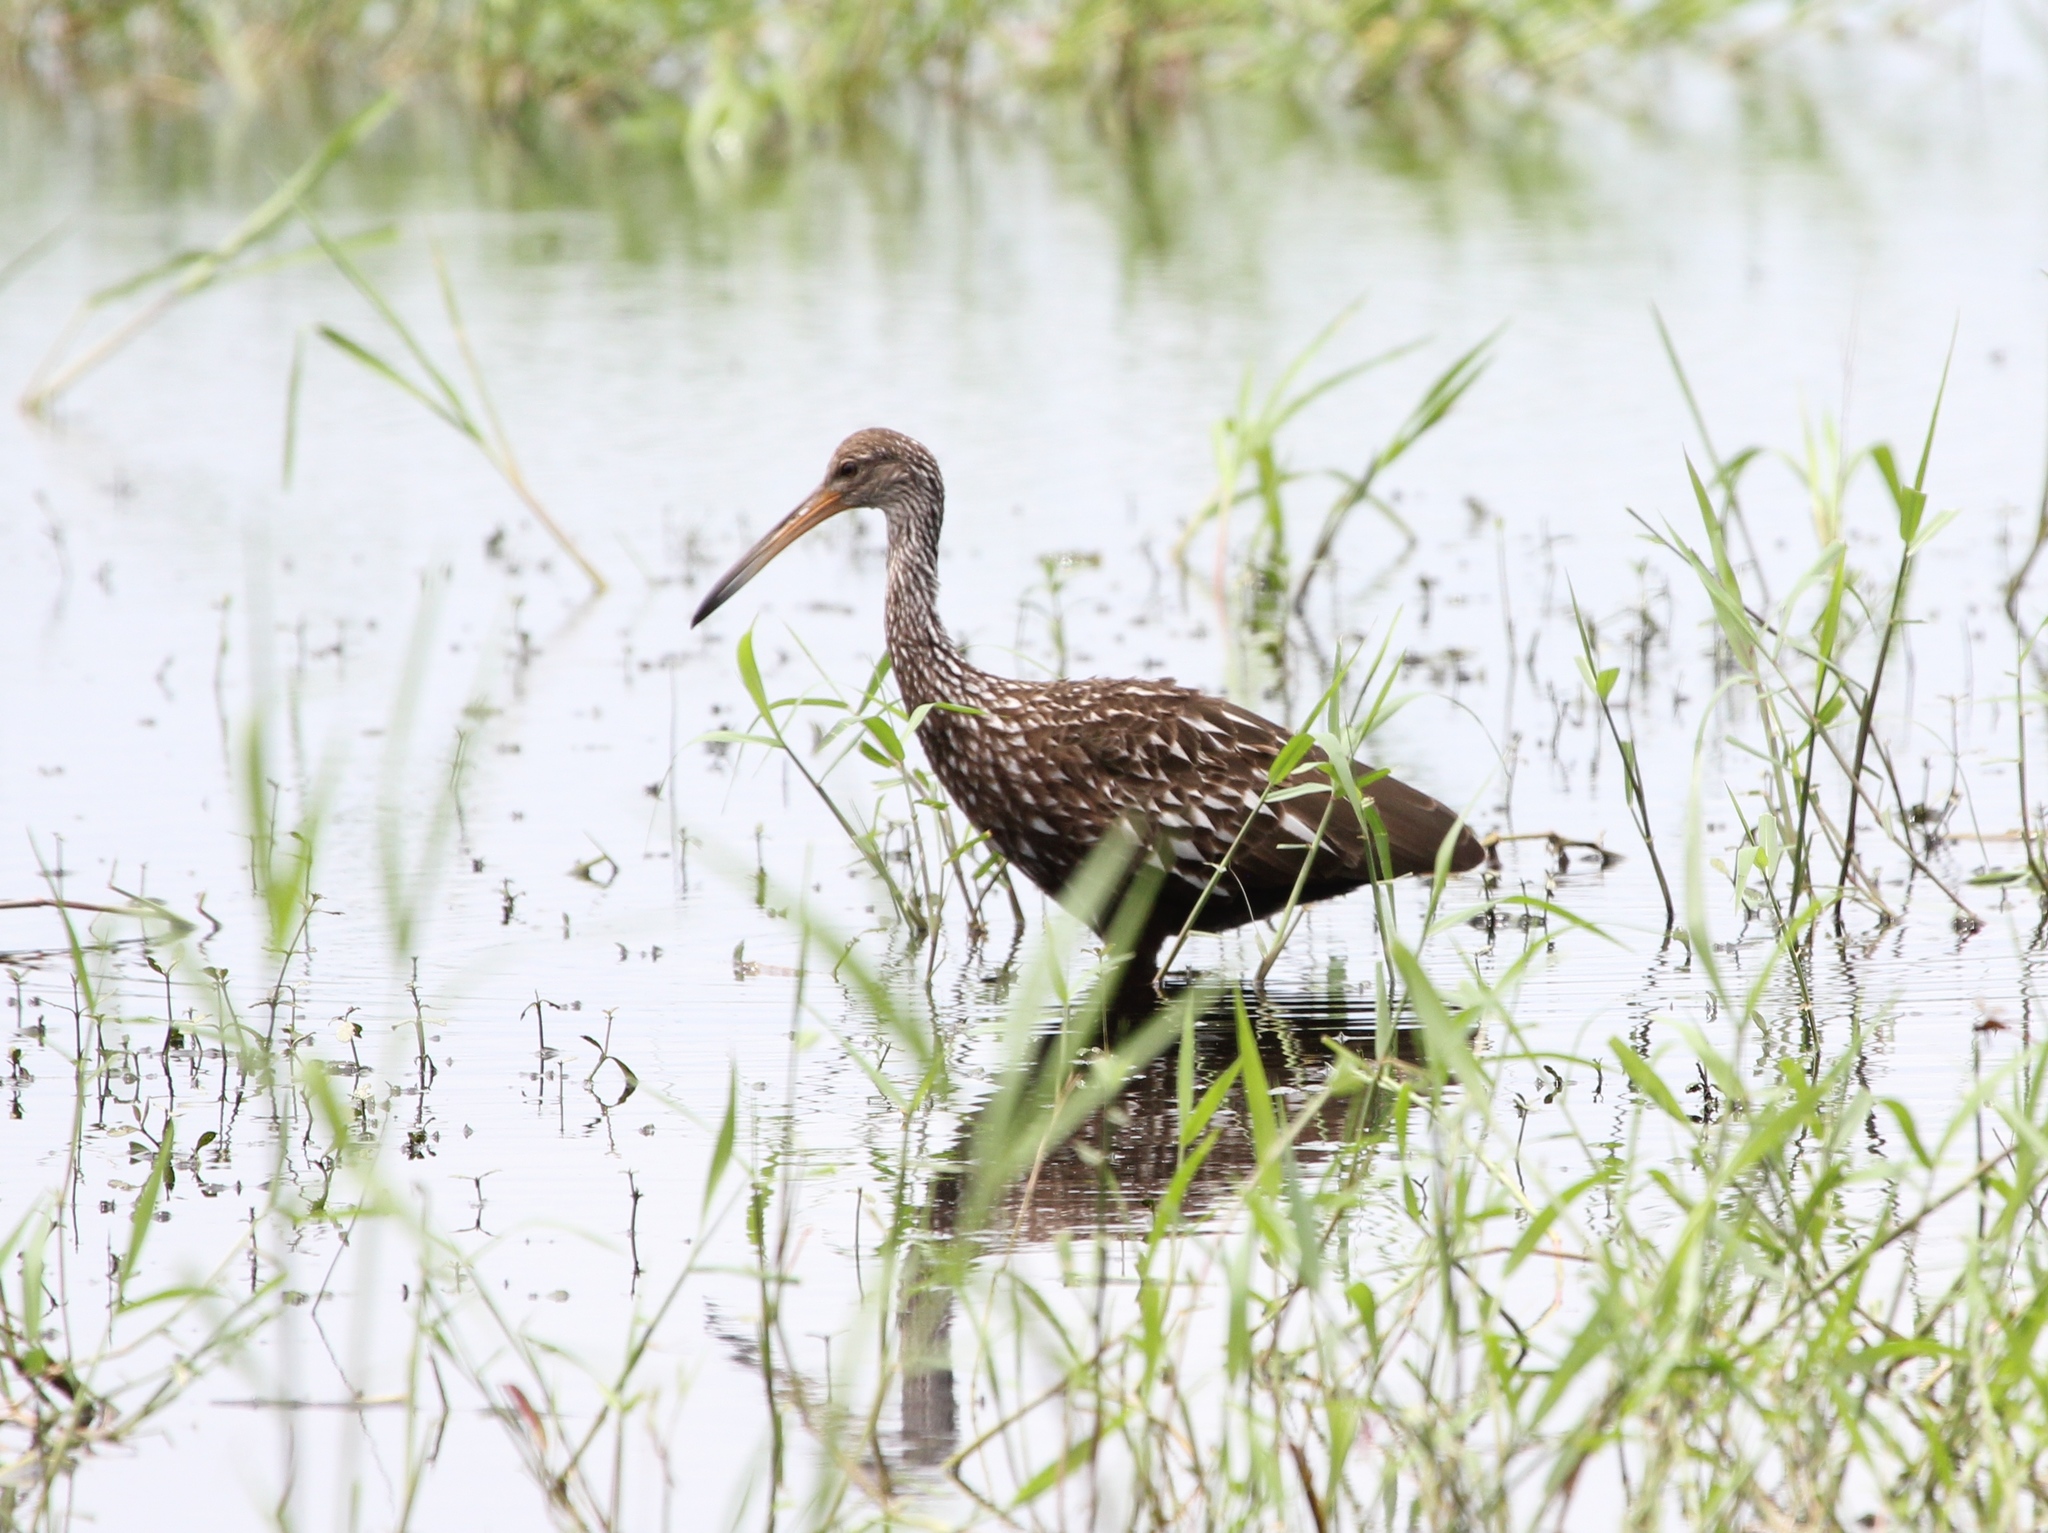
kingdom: Animalia
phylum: Chordata
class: Aves
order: Gruiformes
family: Aramidae
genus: Aramus
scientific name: Aramus guarauna
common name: Limpkin
